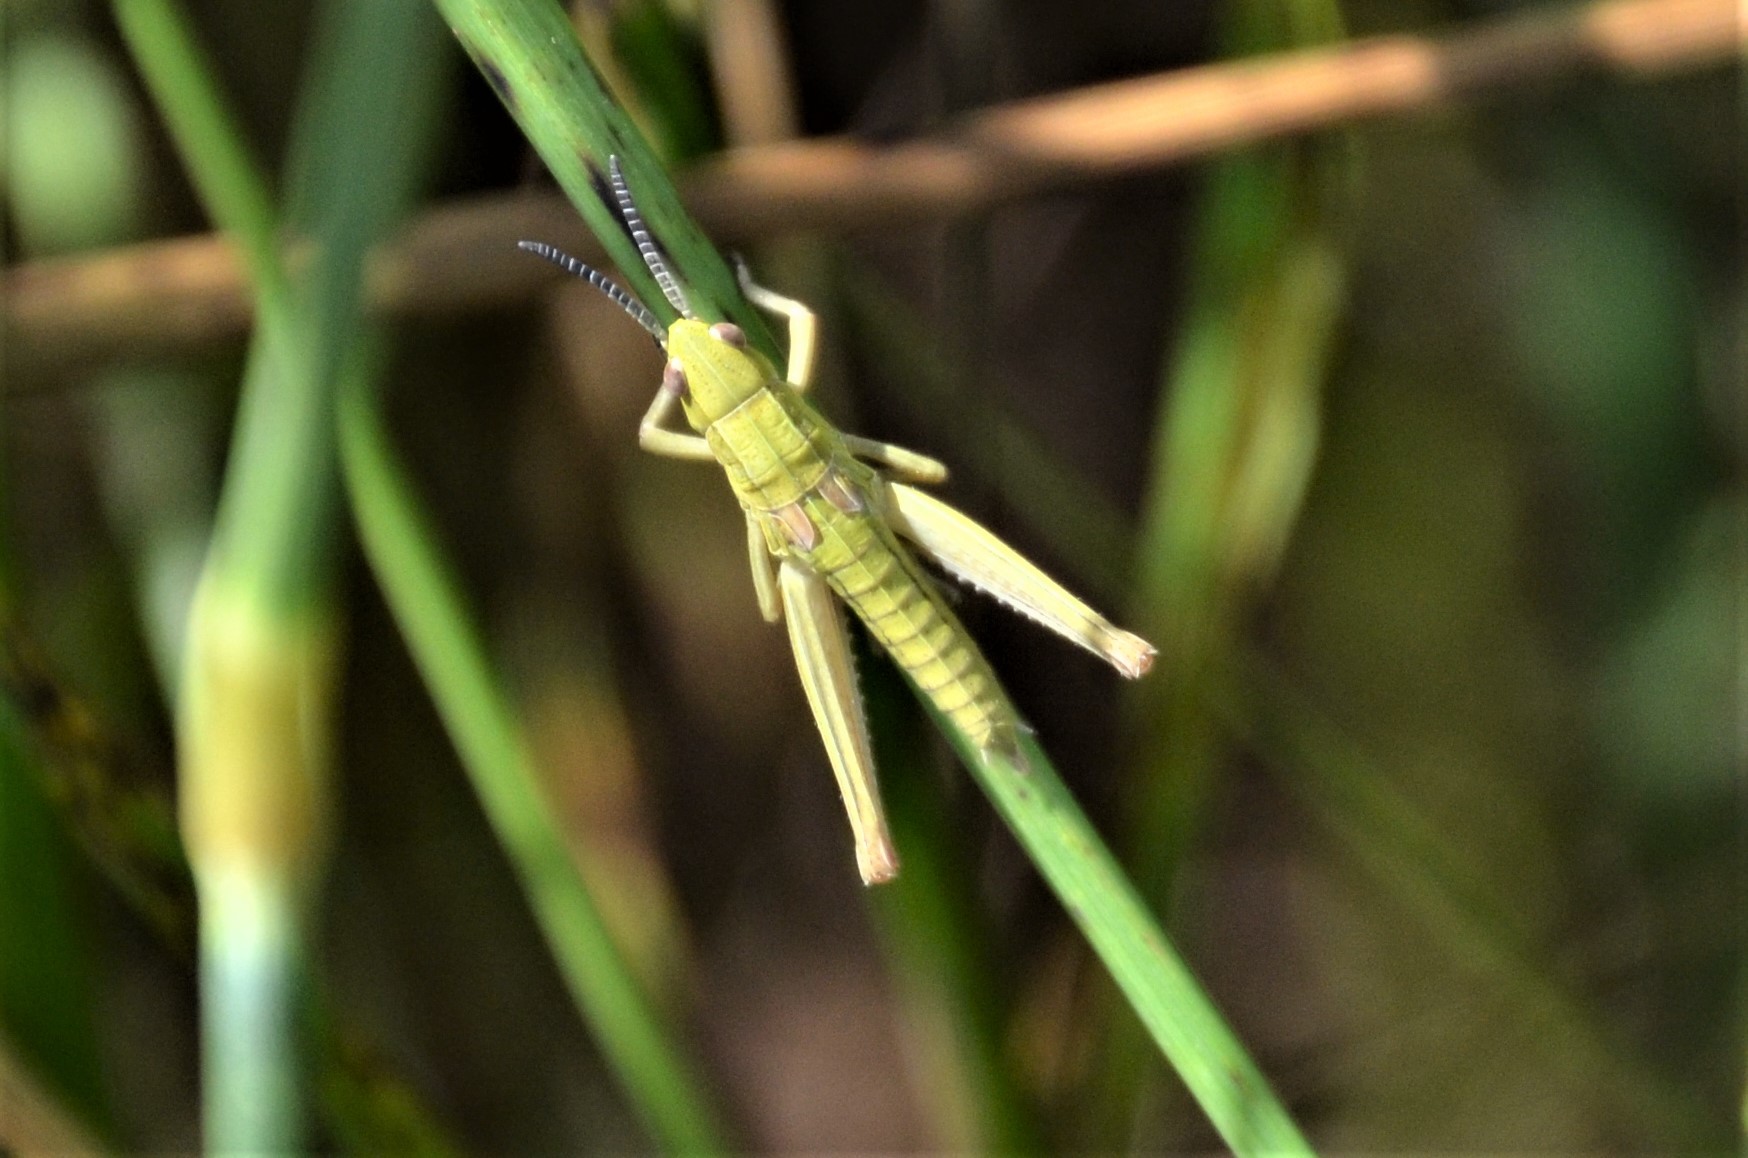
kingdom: Animalia
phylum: Arthropoda
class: Insecta
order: Orthoptera
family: Acrididae
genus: Euthystira
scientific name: Euthystira brachyptera
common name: Small gold grasshopper
